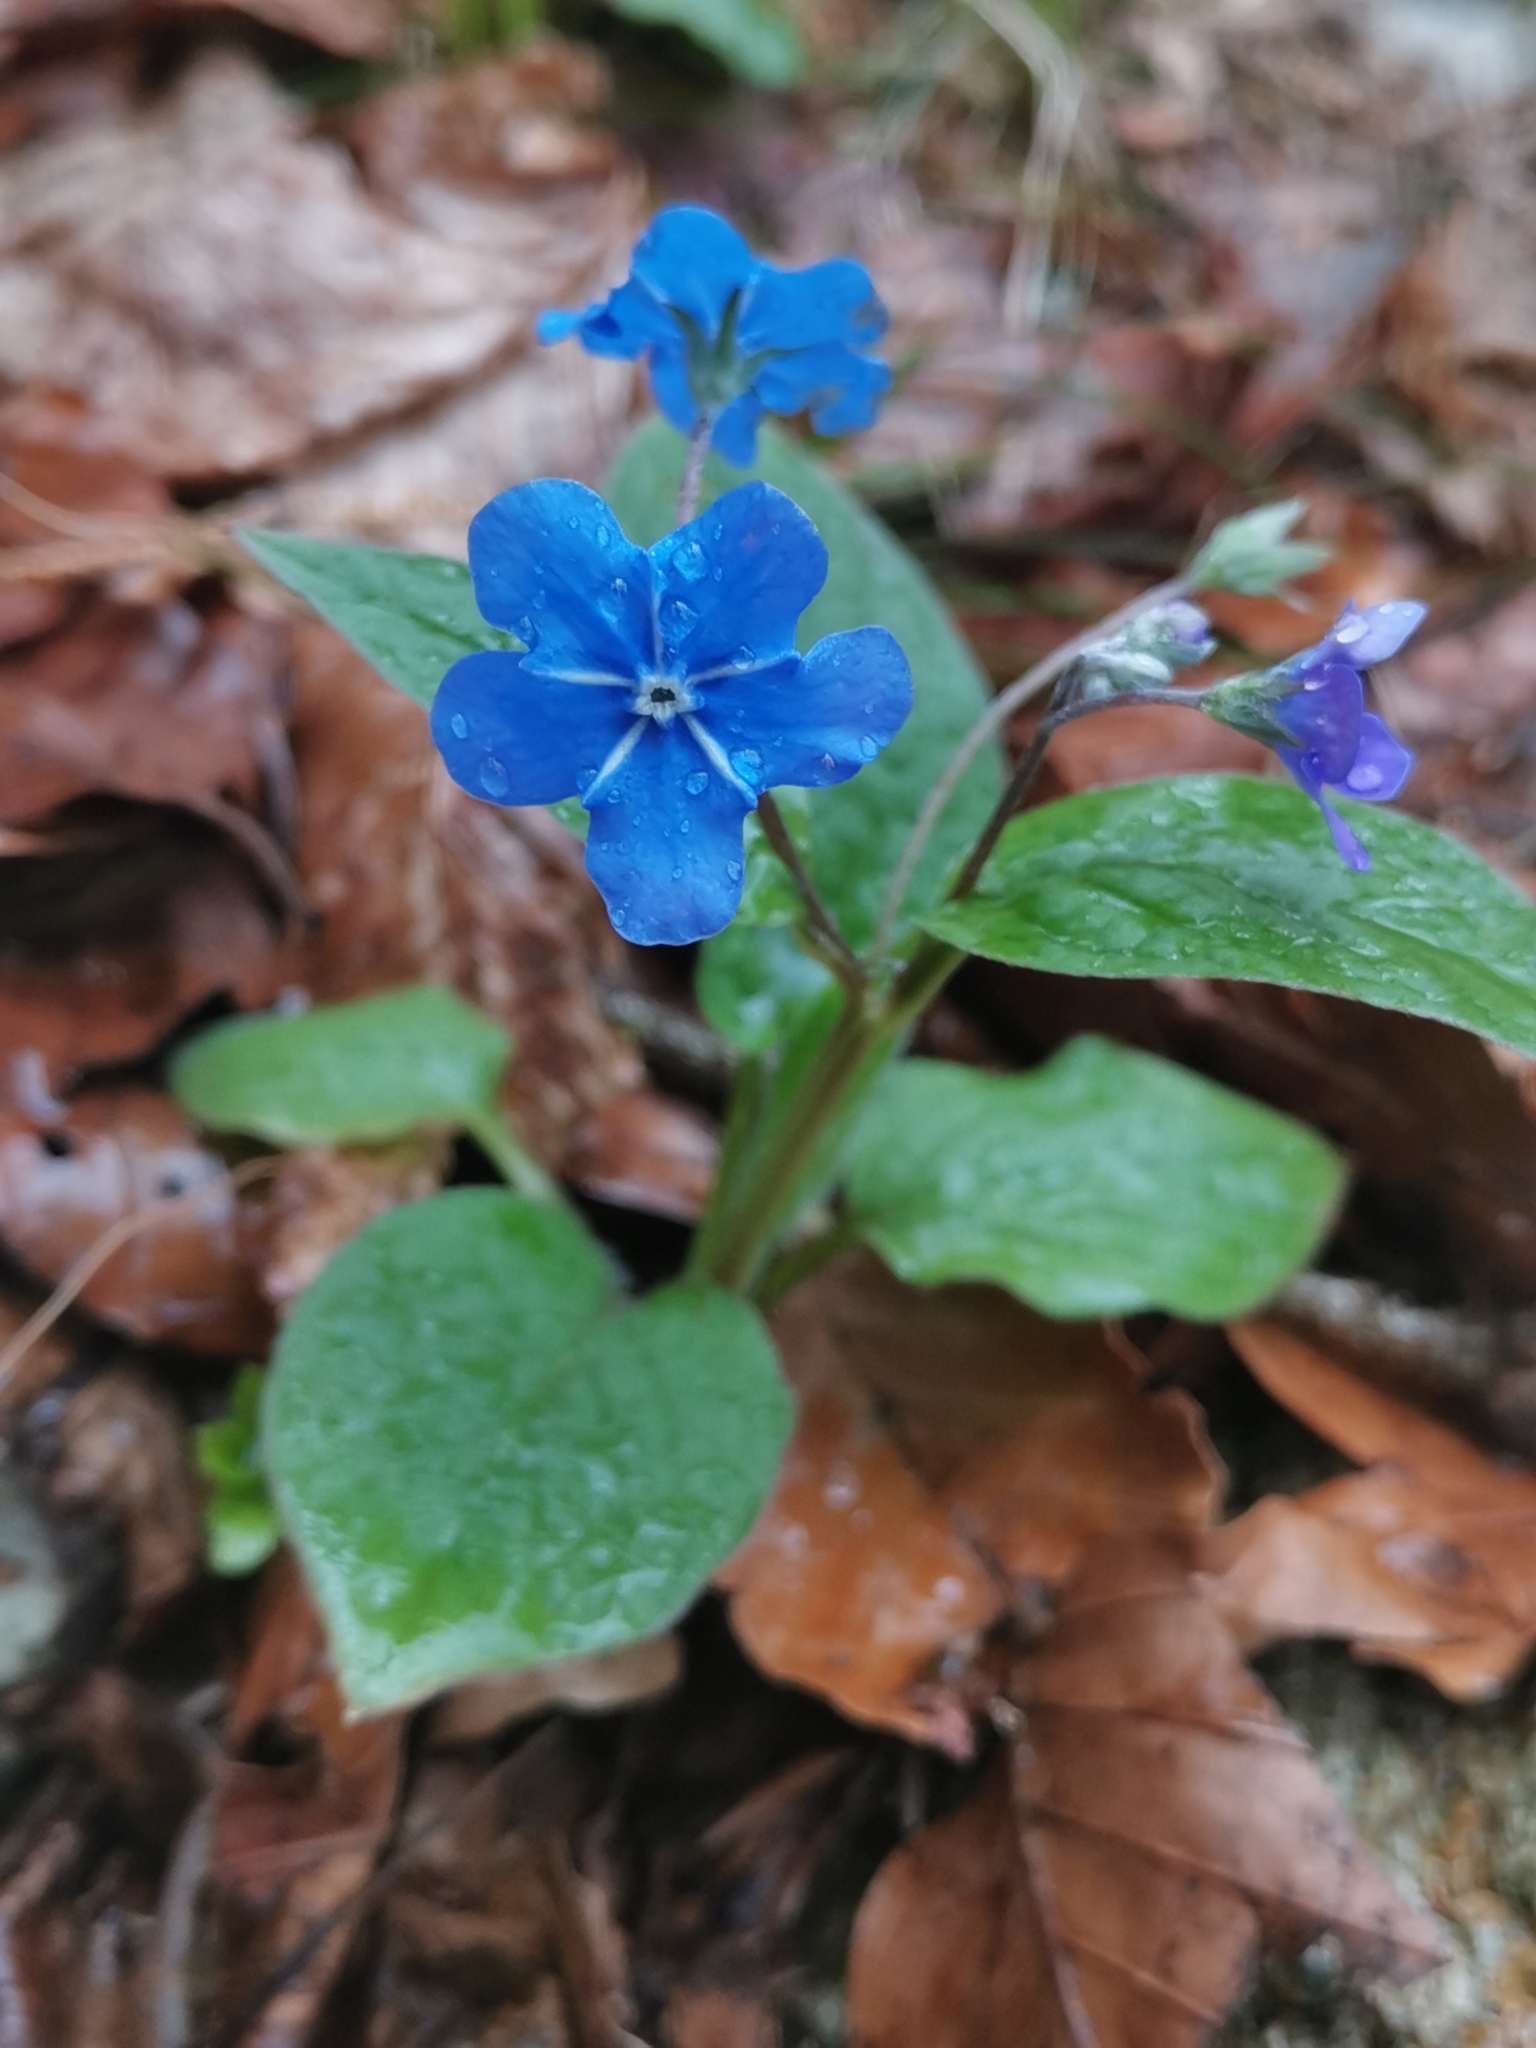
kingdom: Plantae
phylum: Tracheophyta
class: Magnoliopsida
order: Boraginales
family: Boraginaceae
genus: Omphalodes
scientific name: Omphalodes verna
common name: Blue-eyed-mary
